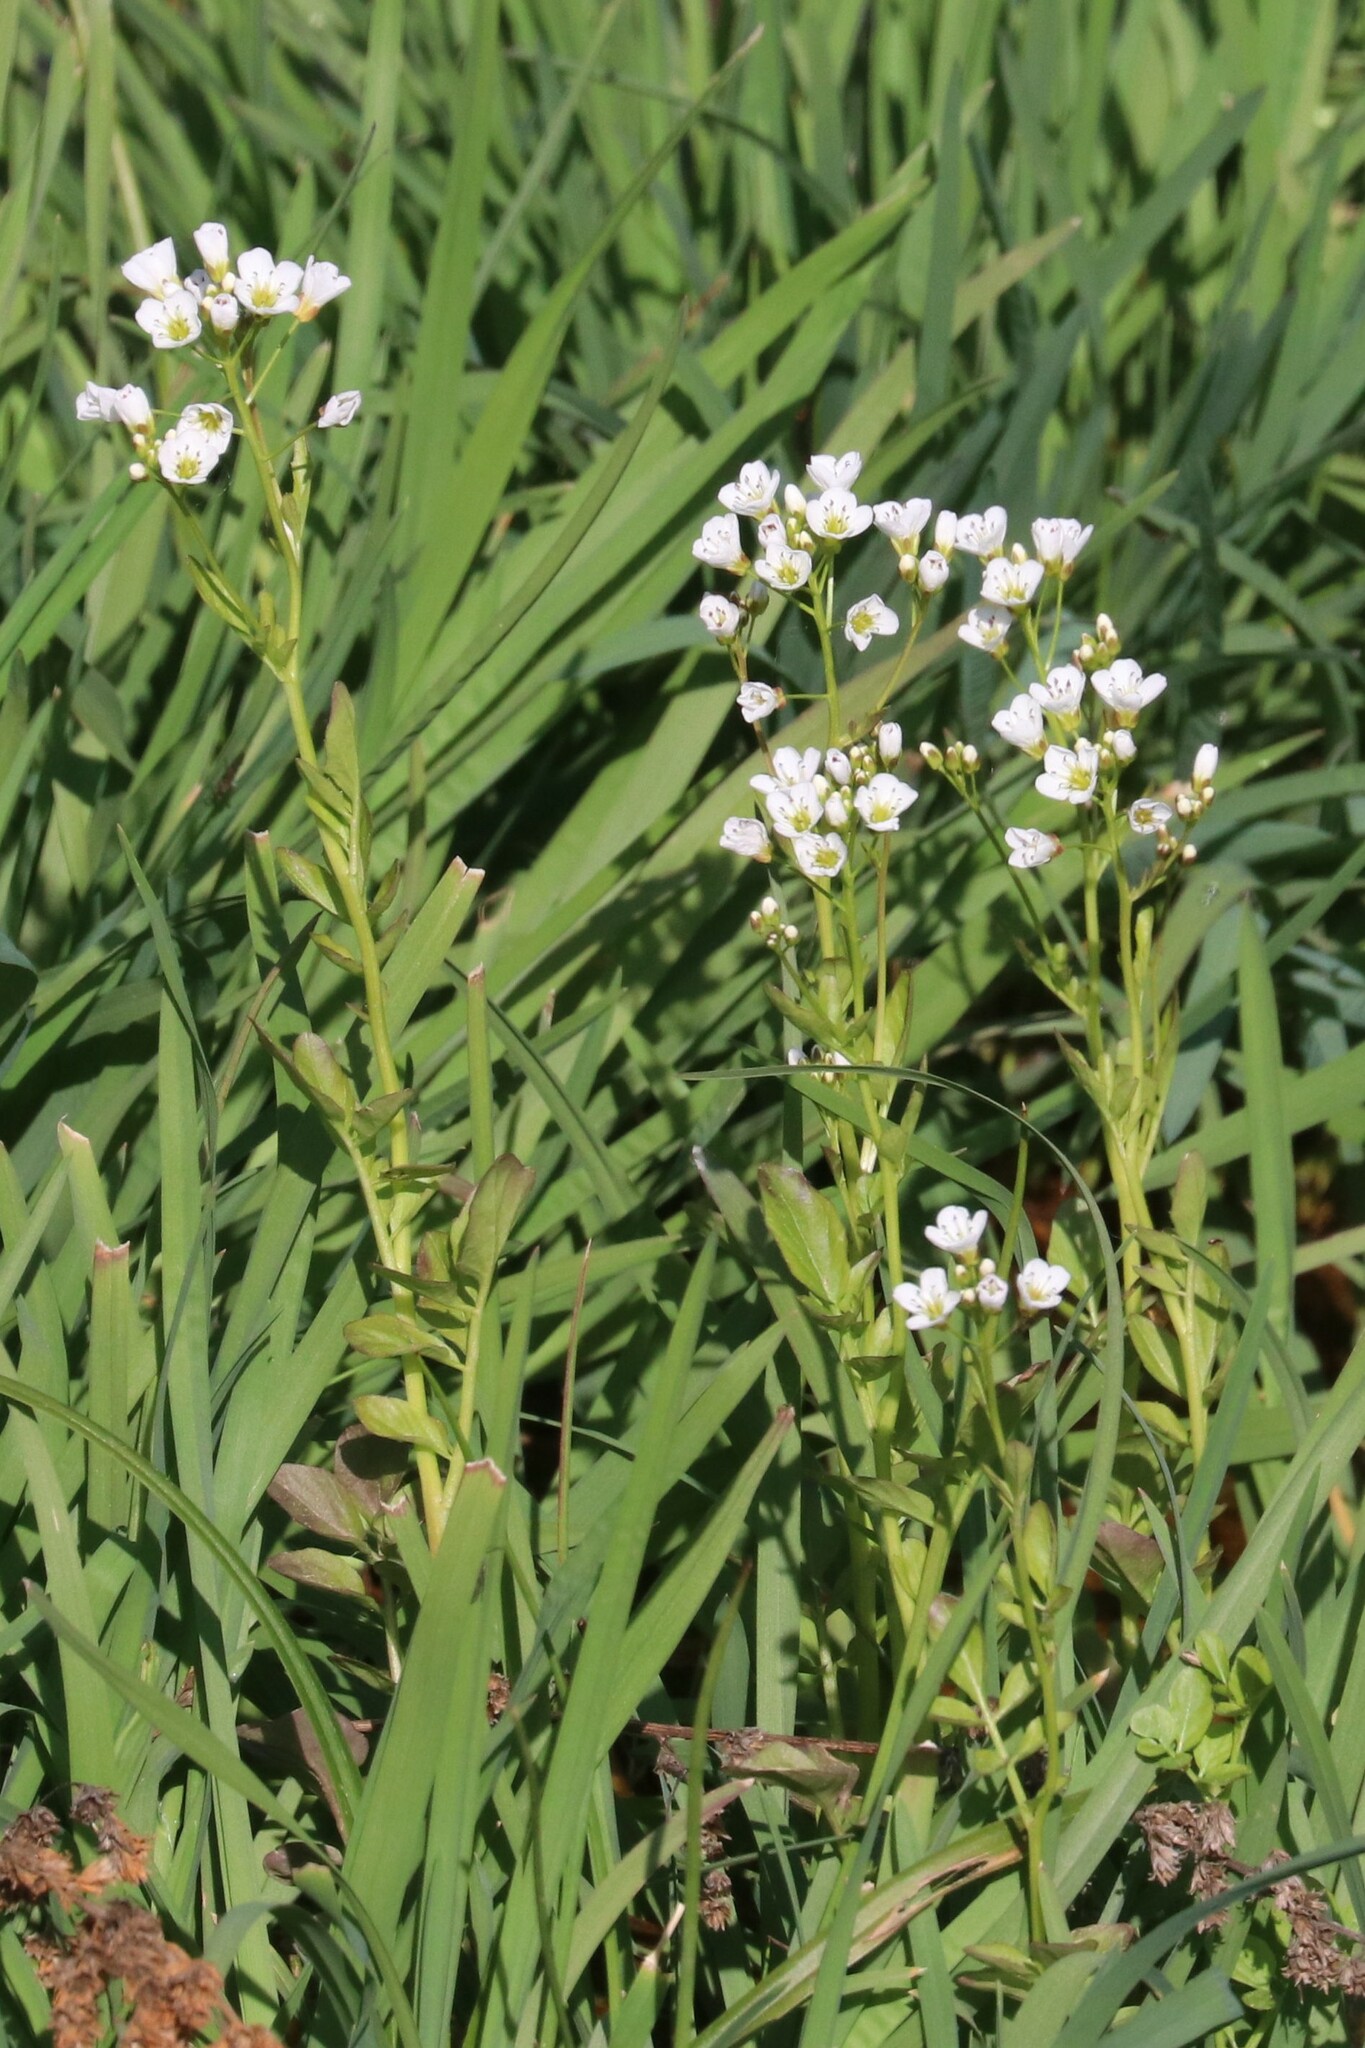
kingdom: Plantae
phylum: Tracheophyta
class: Magnoliopsida
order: Brassicales
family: Brassicaceae
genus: Cardamine
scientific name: Cardamine amara
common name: Large bitter-cress
